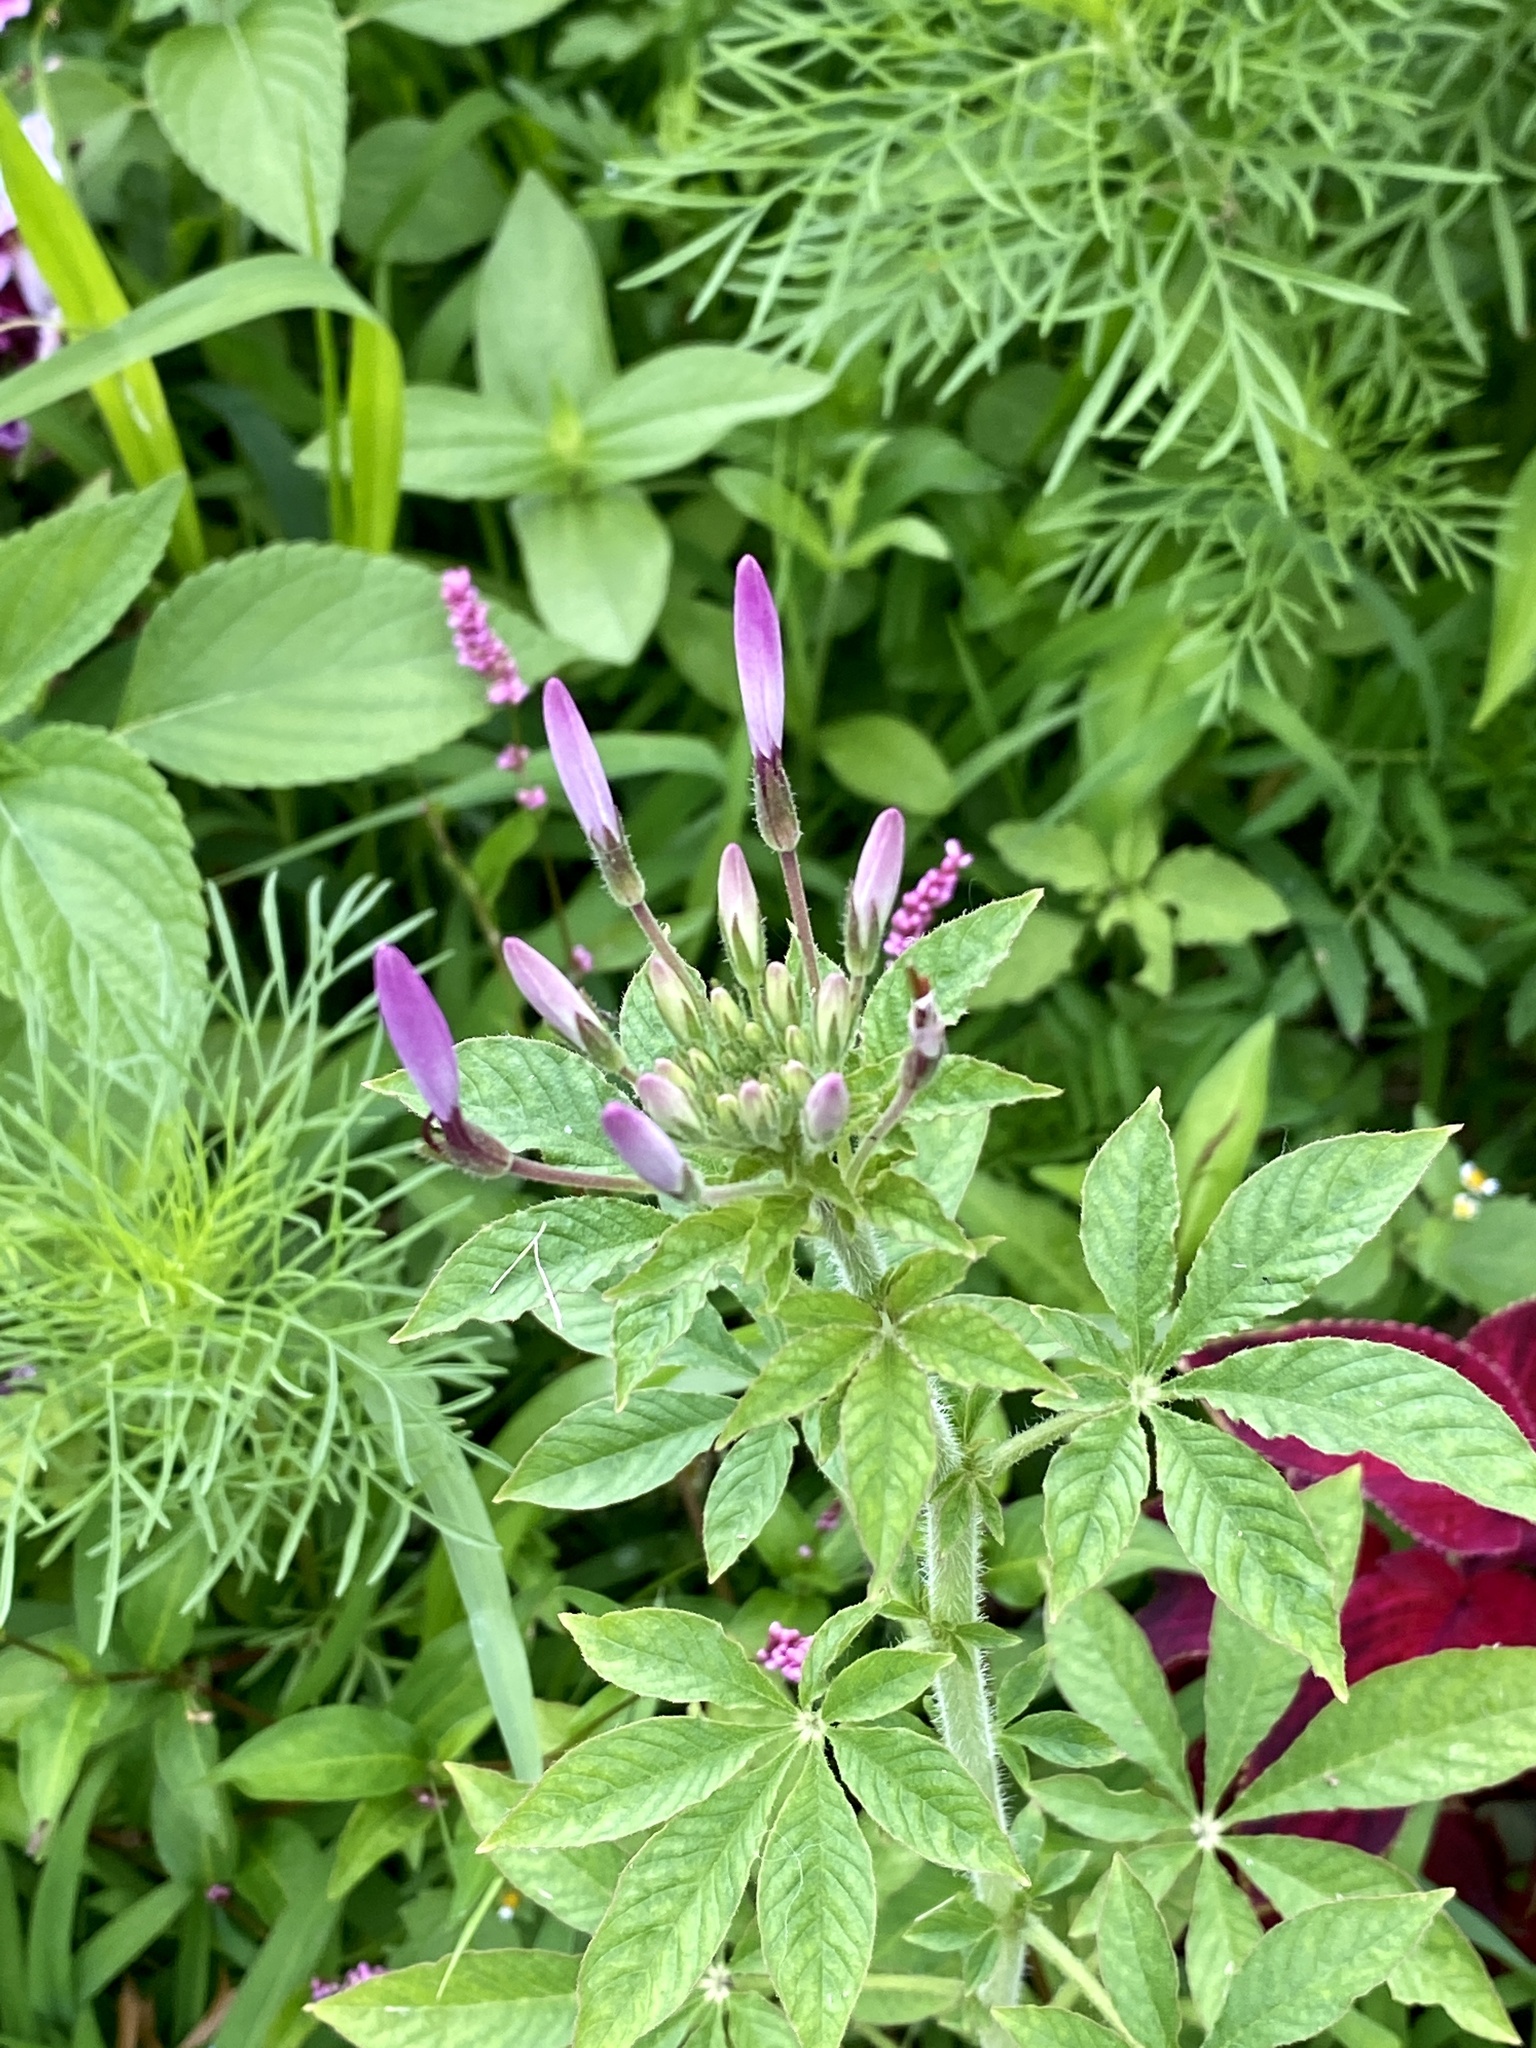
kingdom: Plantae
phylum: Tracheophyta
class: Magnoliopsida
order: Brassicales
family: Cleomaceae
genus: Tarenaya
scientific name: Tarenaya houtteana
